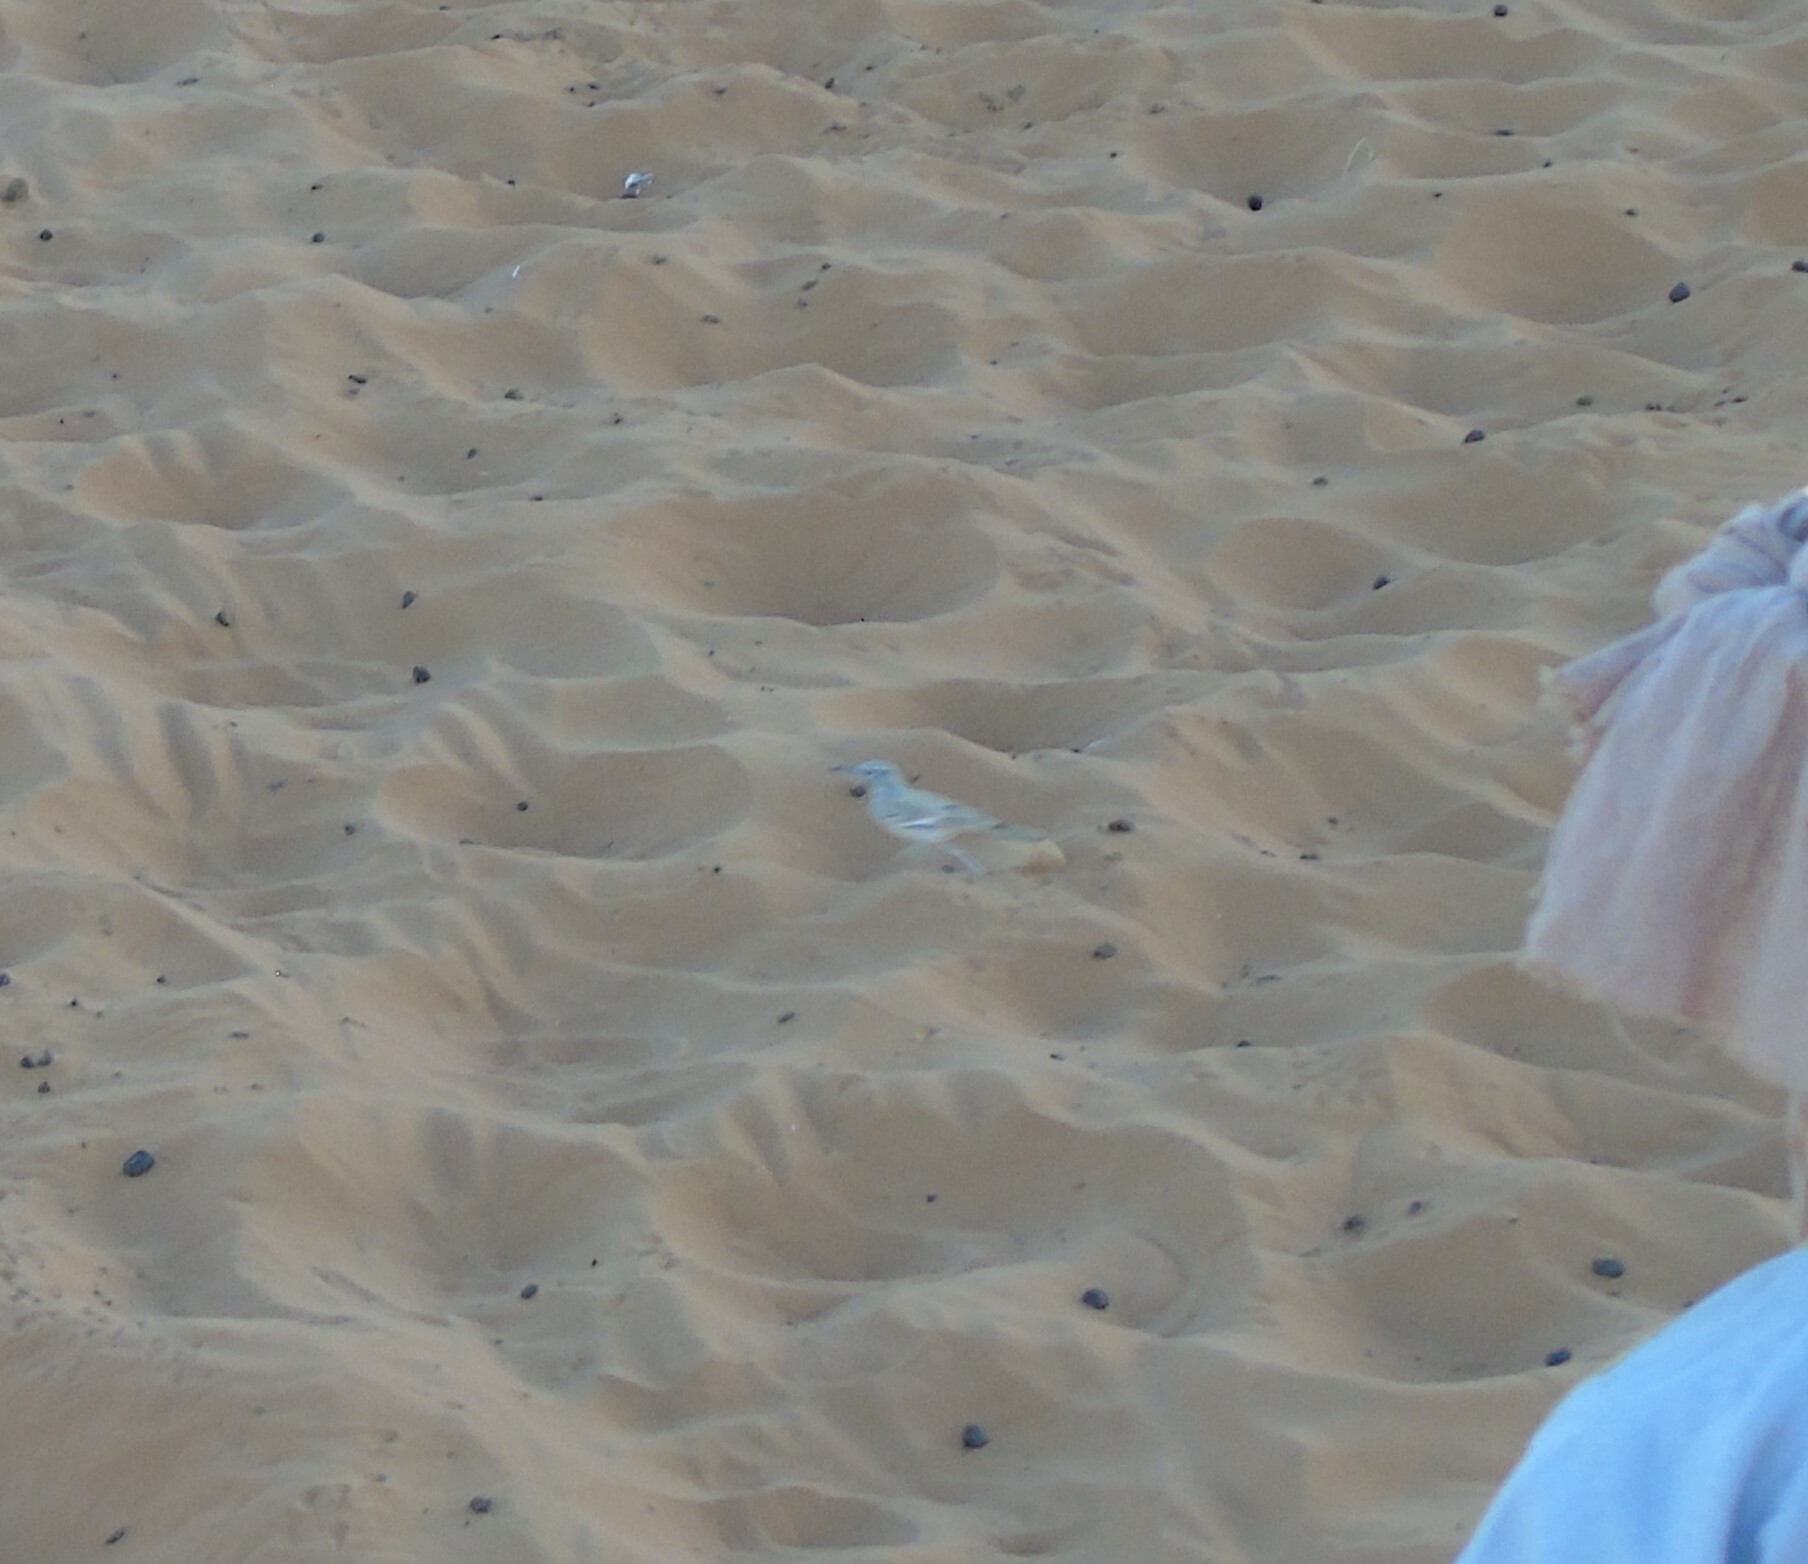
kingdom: Animalia
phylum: Chordata
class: Aves
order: Passeriformes
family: Alaudidae
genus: Alaemon
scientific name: Alaemon alaudipes
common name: Greater hoopoe-lark
